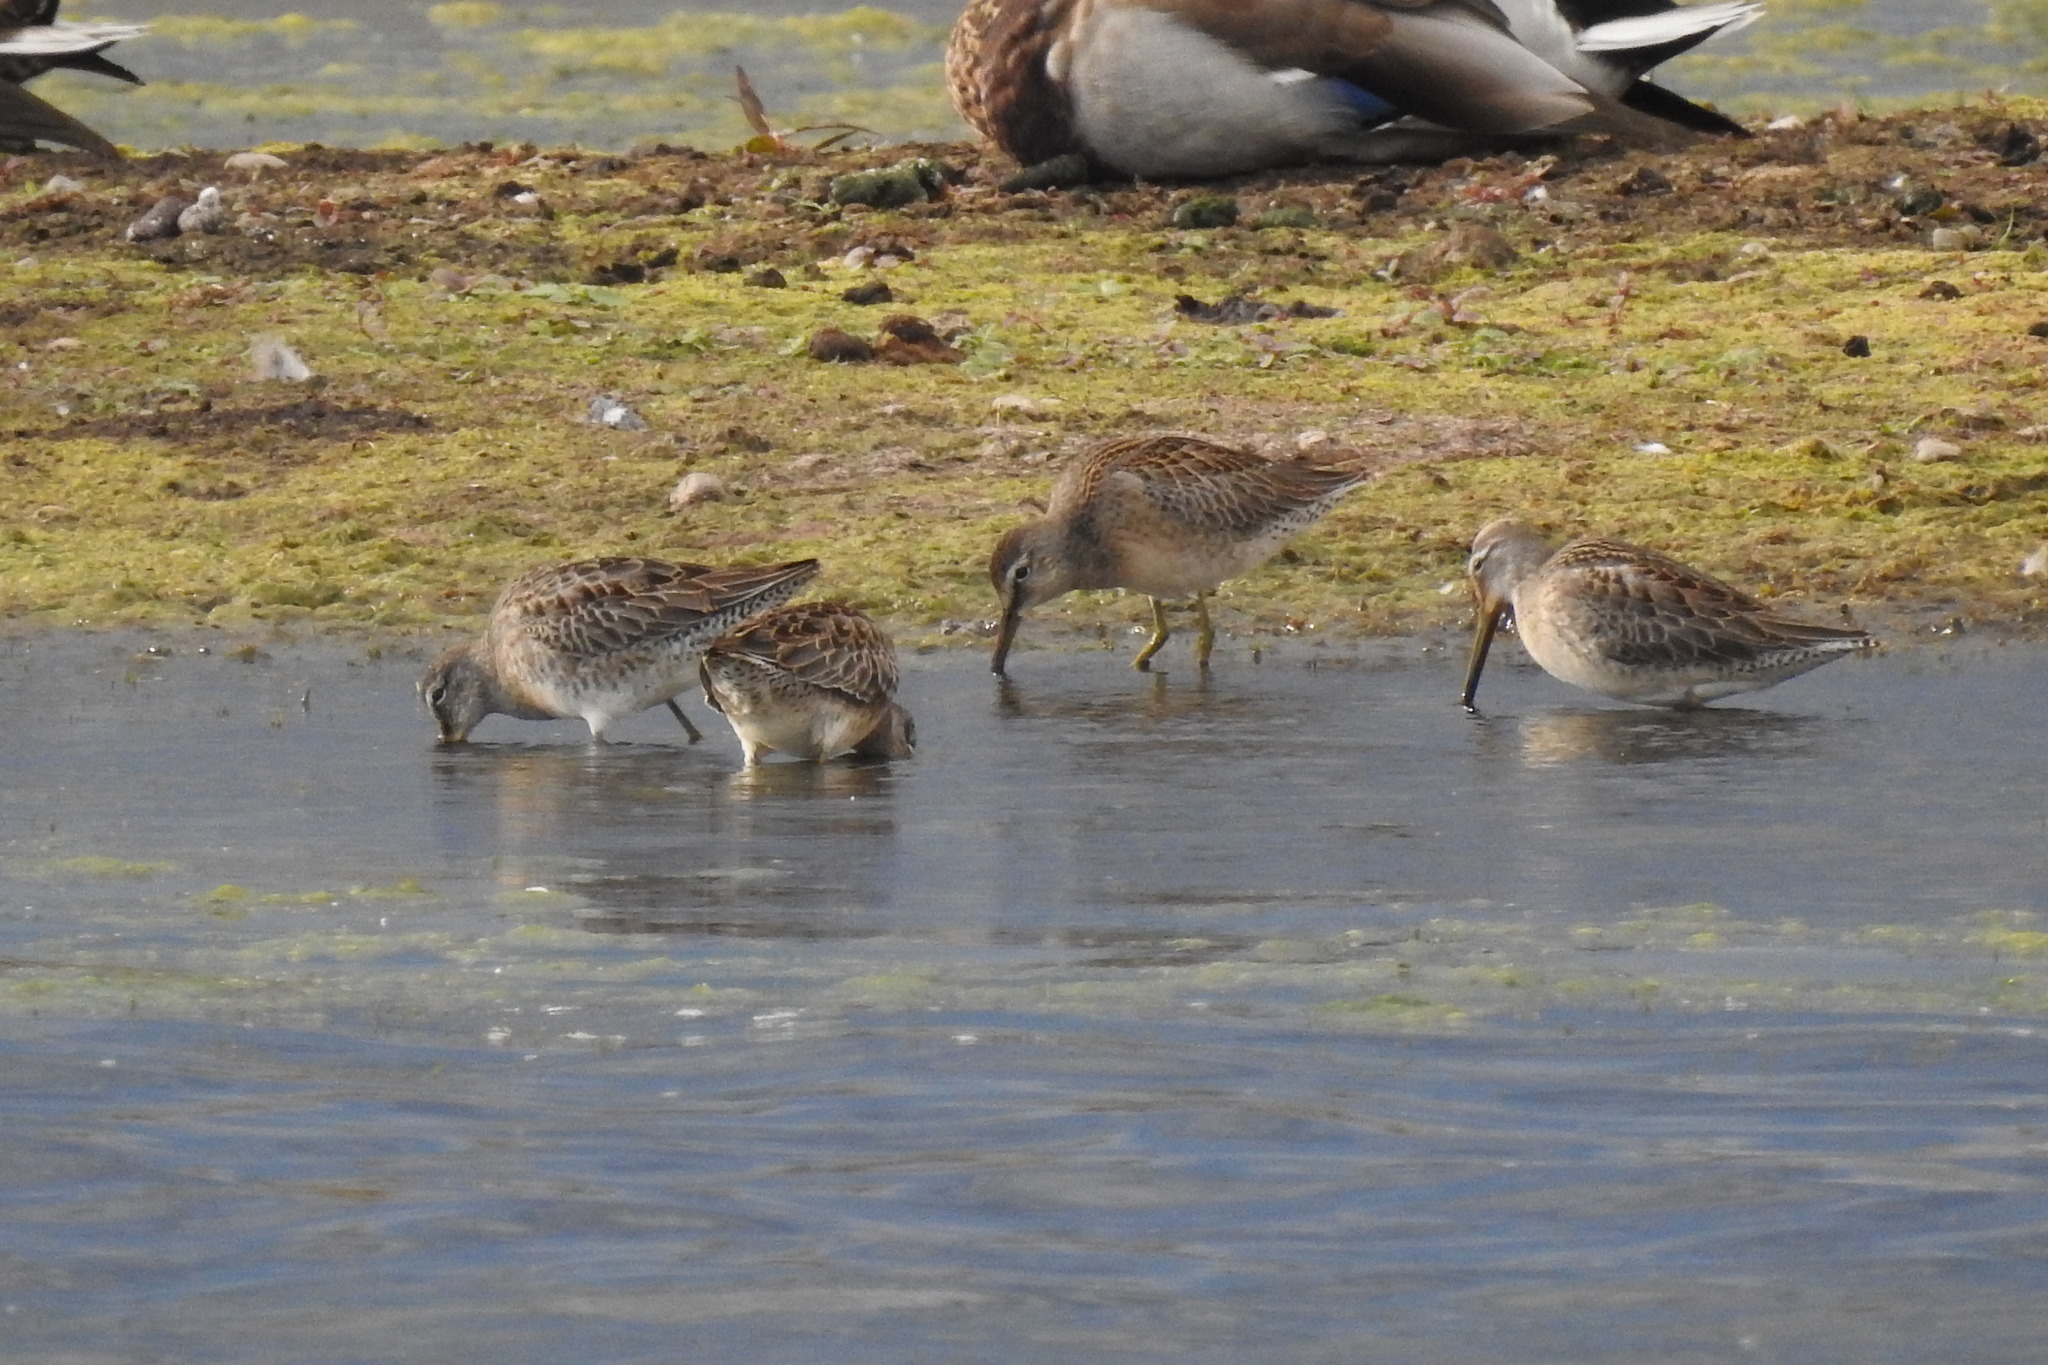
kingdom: Animalia
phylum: Chordata
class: Aves
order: Charadriiformes
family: Scolopacidae
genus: Limnodromus
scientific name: Limnodromus scolopaceus
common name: Long-billed dowitcher
